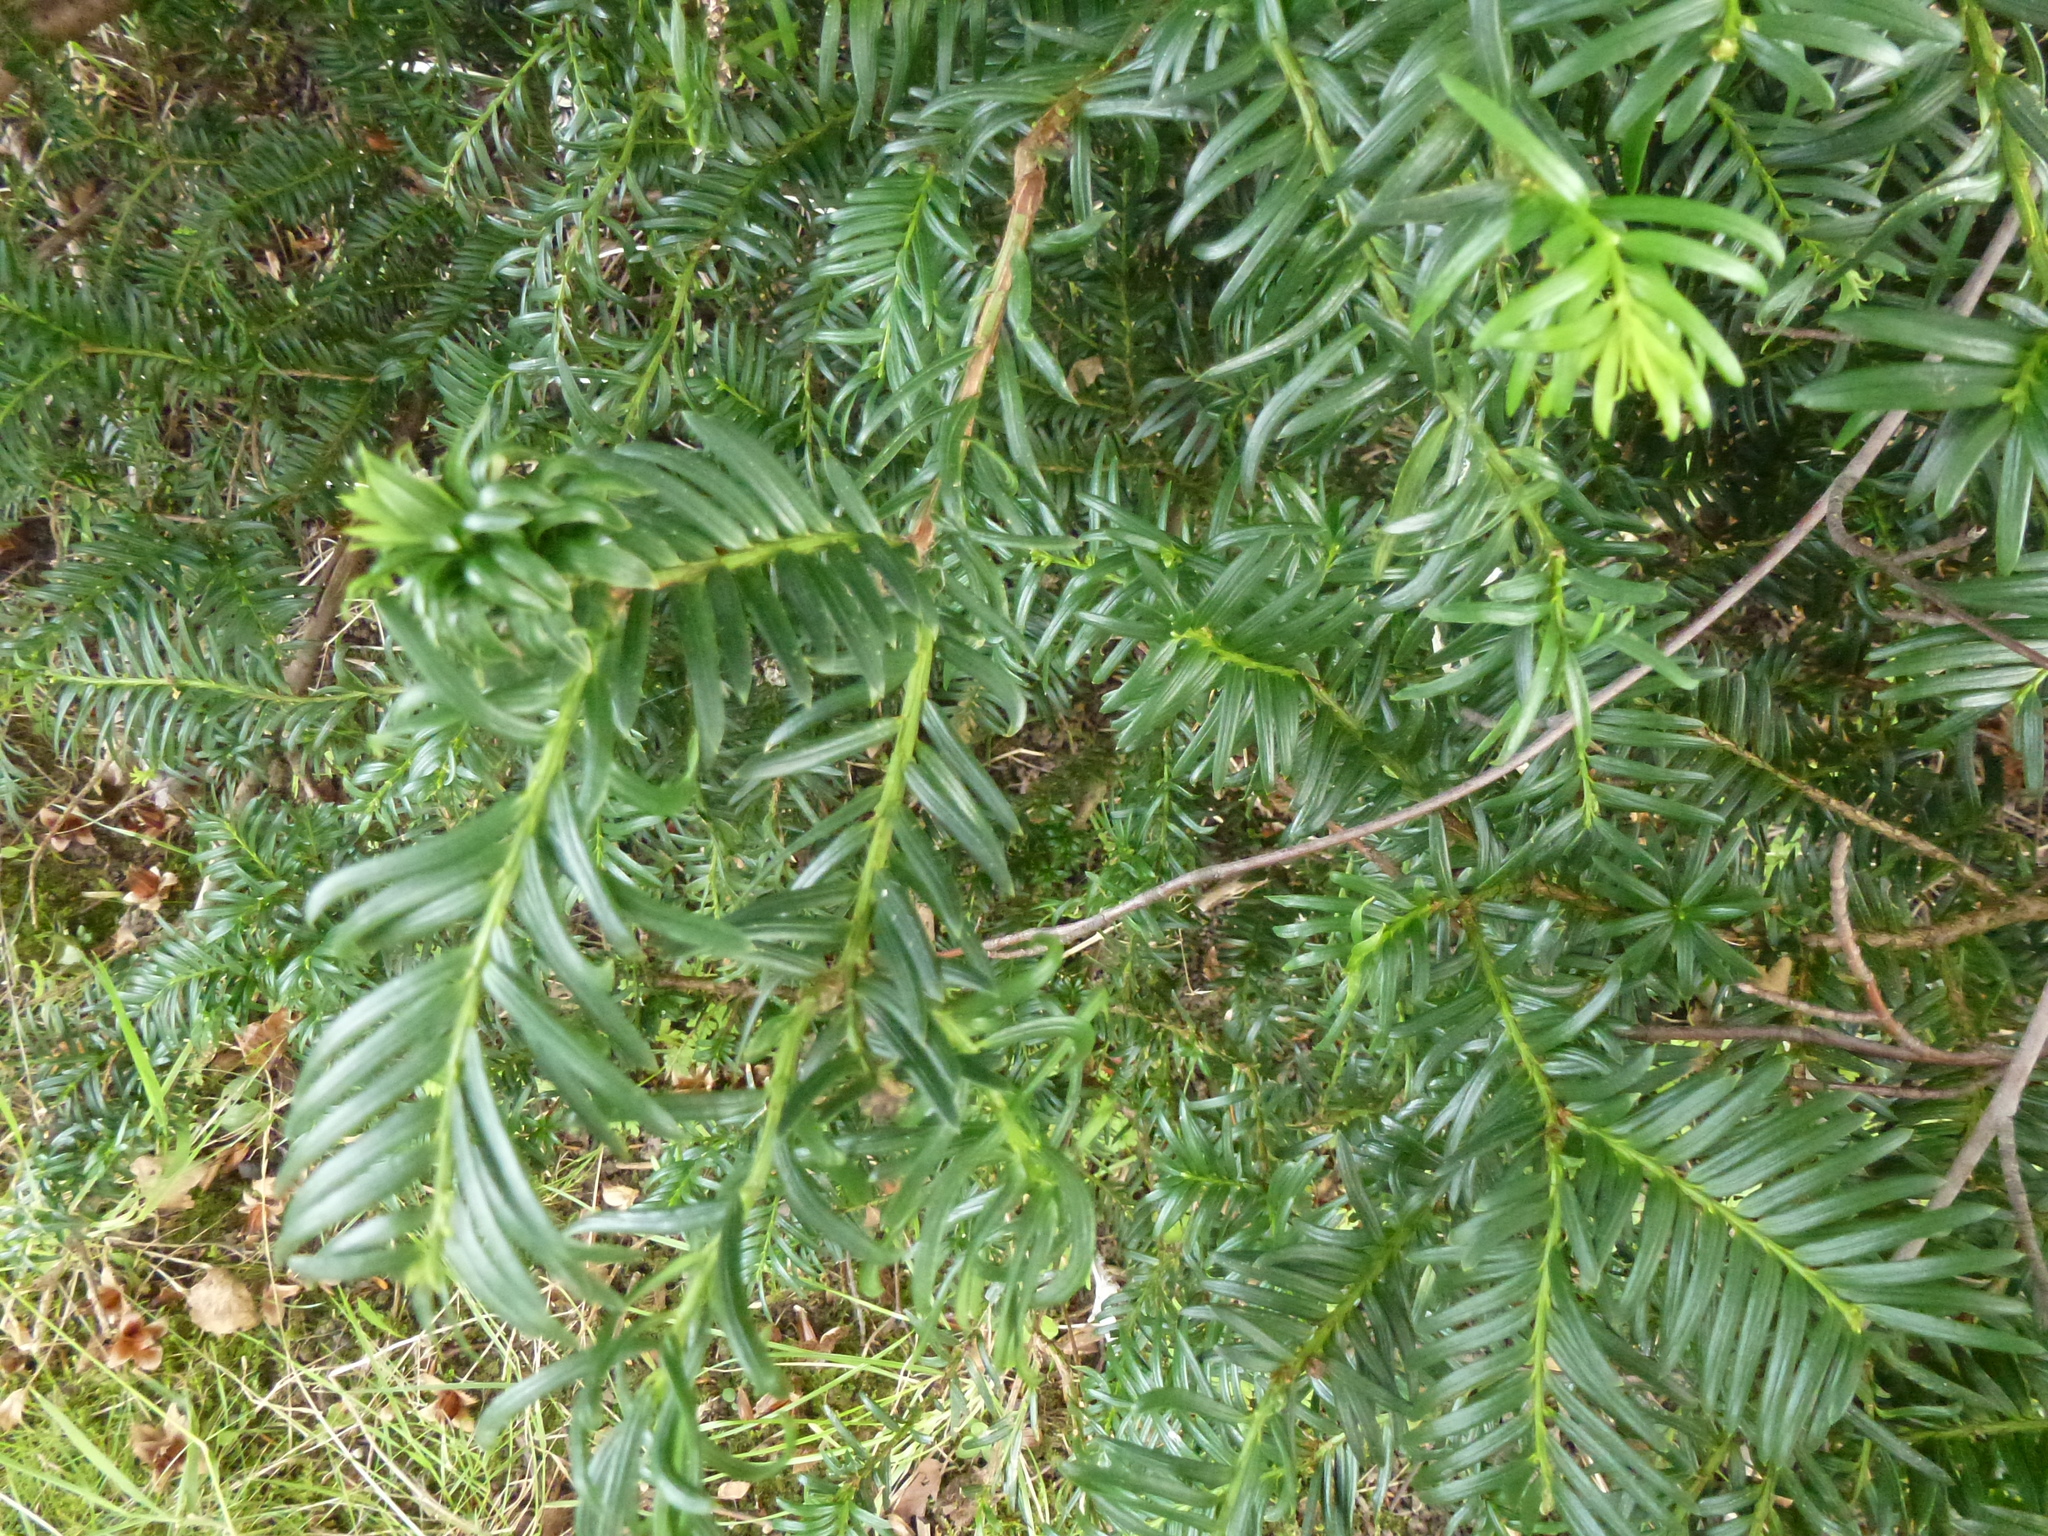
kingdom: Plantae
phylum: Tracheophyta
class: Pinopsida
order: Pinales
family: Taxaceae
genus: Taxus
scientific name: Taxus baccata
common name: Yew
